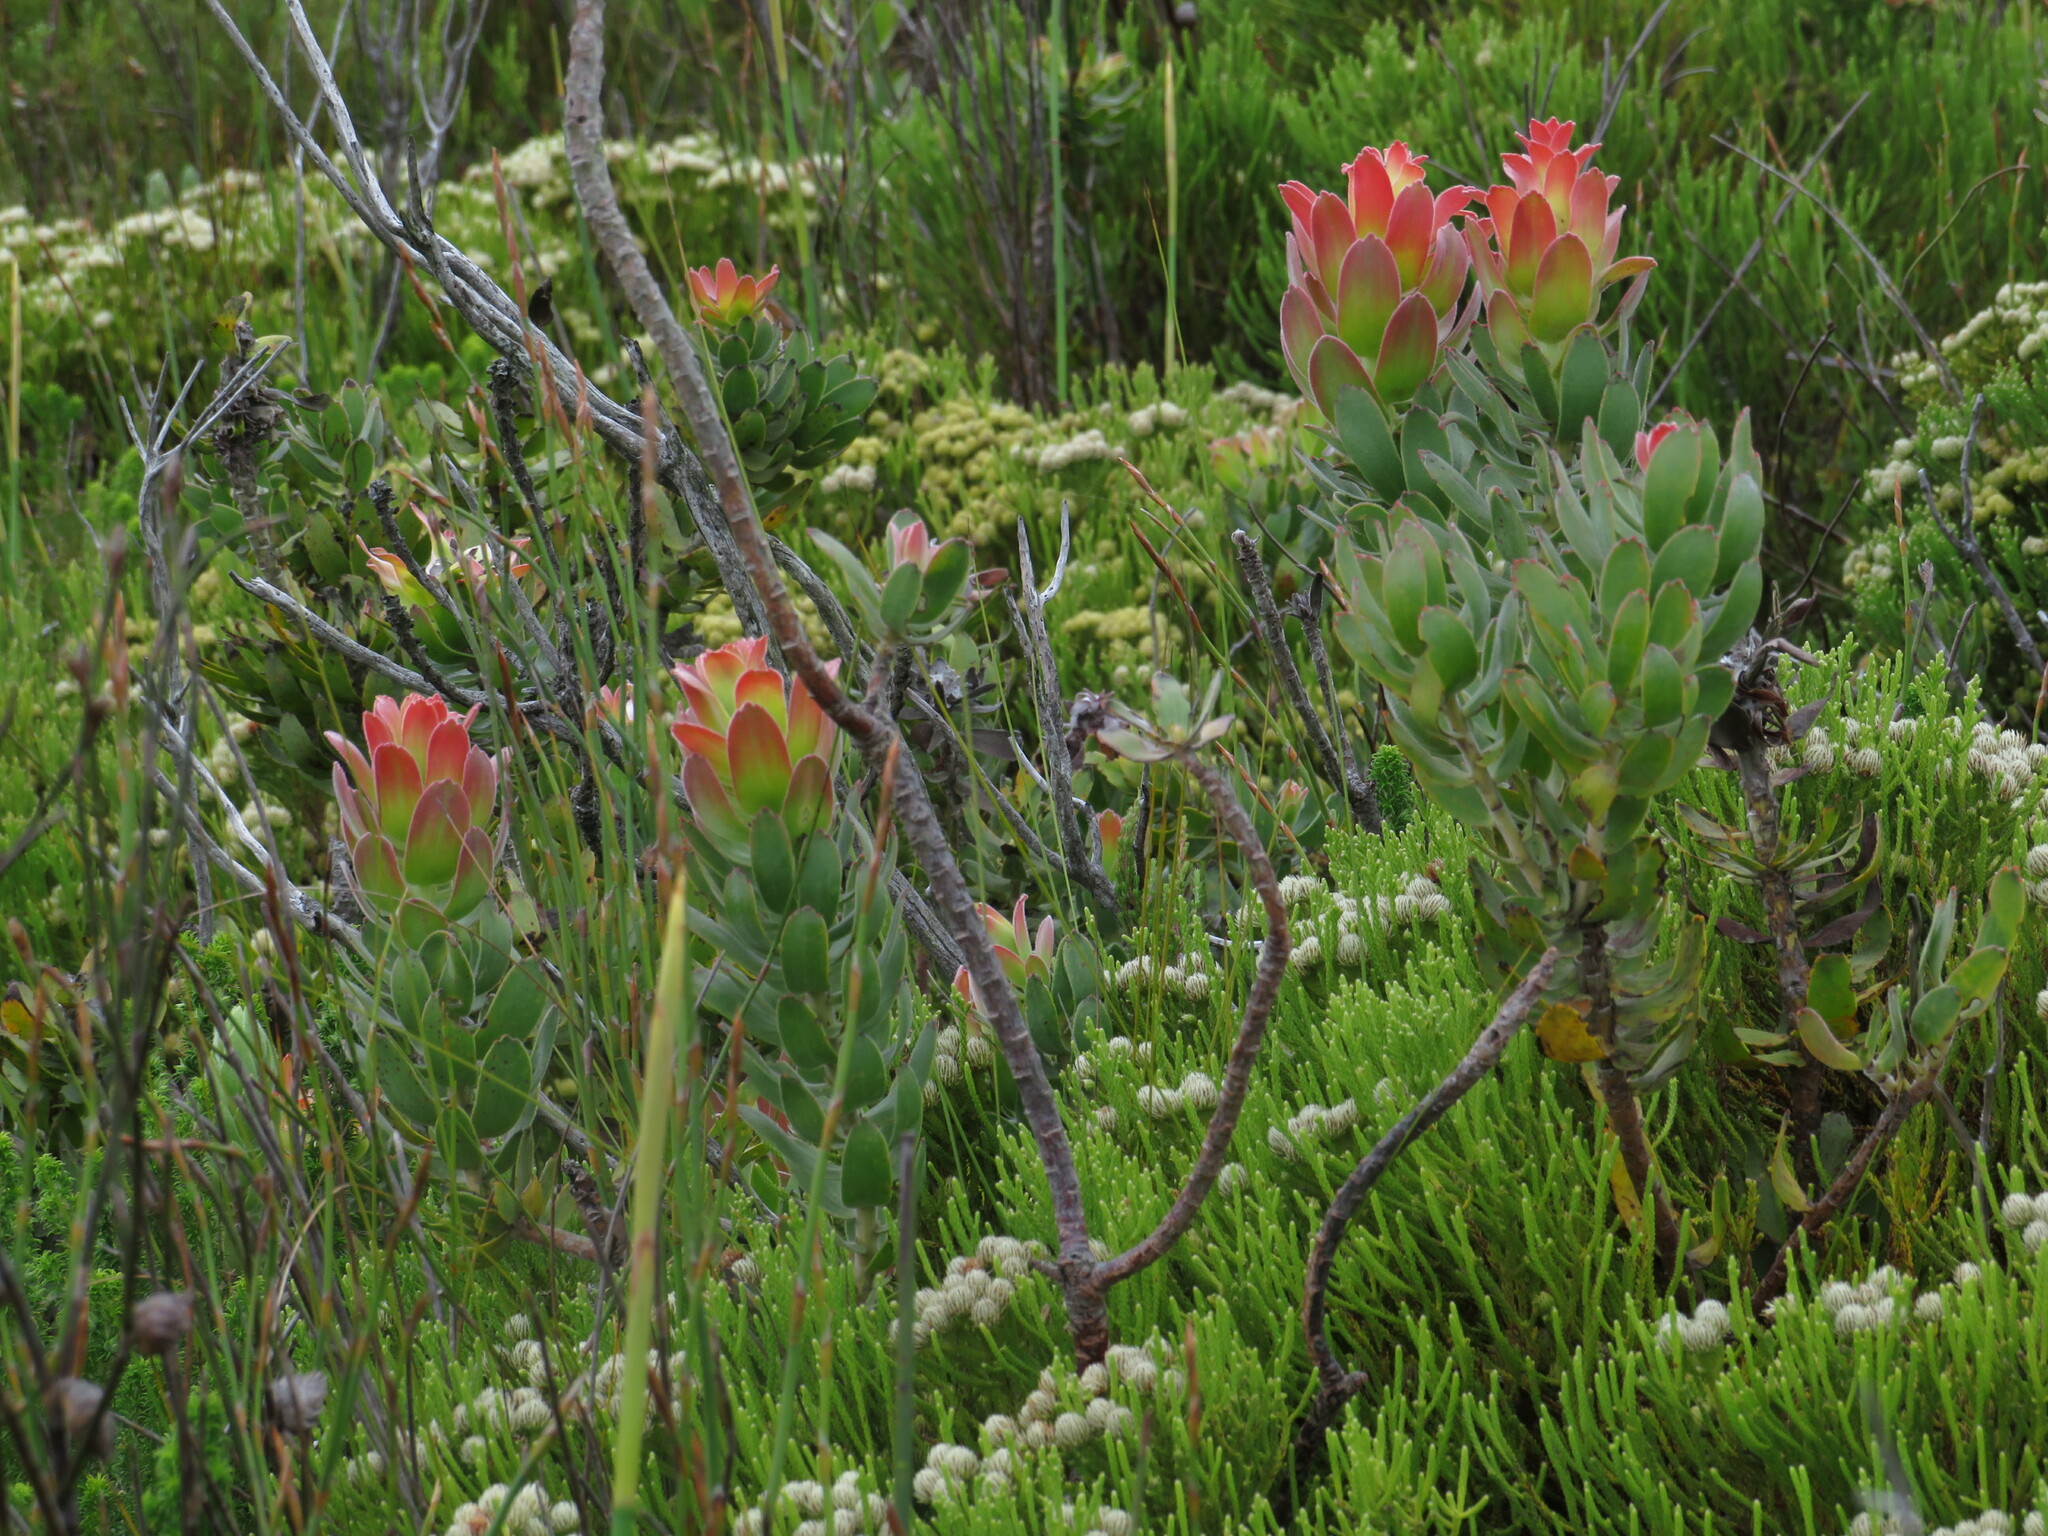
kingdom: Plantae
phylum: Tracheophyta
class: Magnoliopsida
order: Proteales
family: Proteaceae
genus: Mimetes
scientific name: Mimetes cucullatus
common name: Common pagoda
